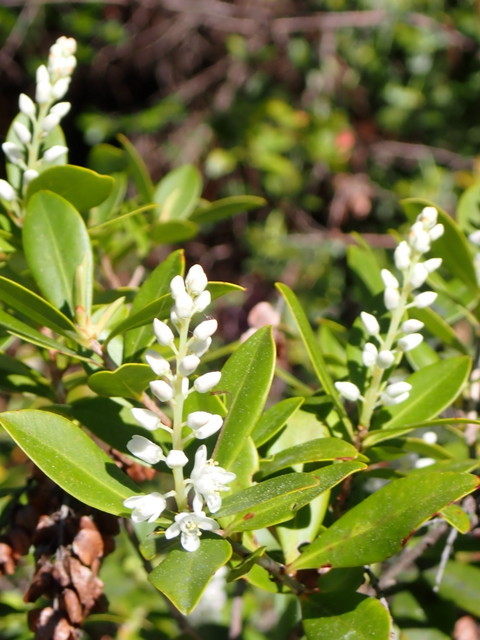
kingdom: Plantae
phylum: Tracheophyta
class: Magnoliopsida
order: Ericales
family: Cyrillaceae
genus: Cliftonia
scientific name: Cliftonia monophylla
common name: Titi
